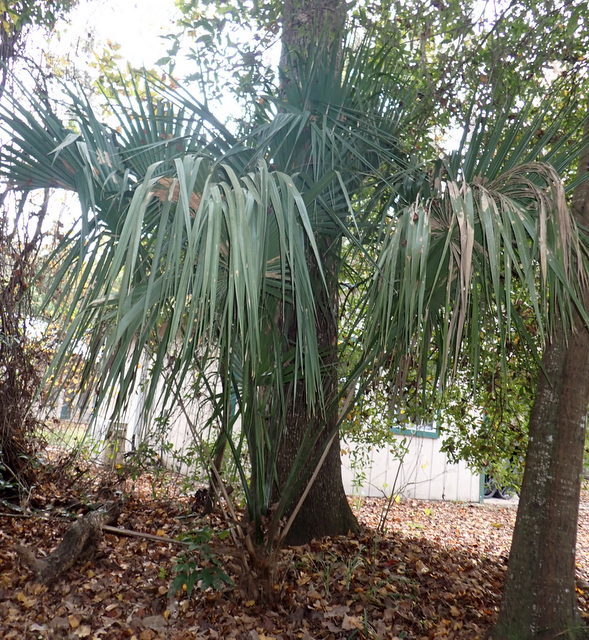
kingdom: Plantae
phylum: Tracheophyta
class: Liliopsida
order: Arecales
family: Arecaceae
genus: Sabal
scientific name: Sabal palmetto
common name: Blue palmetto
